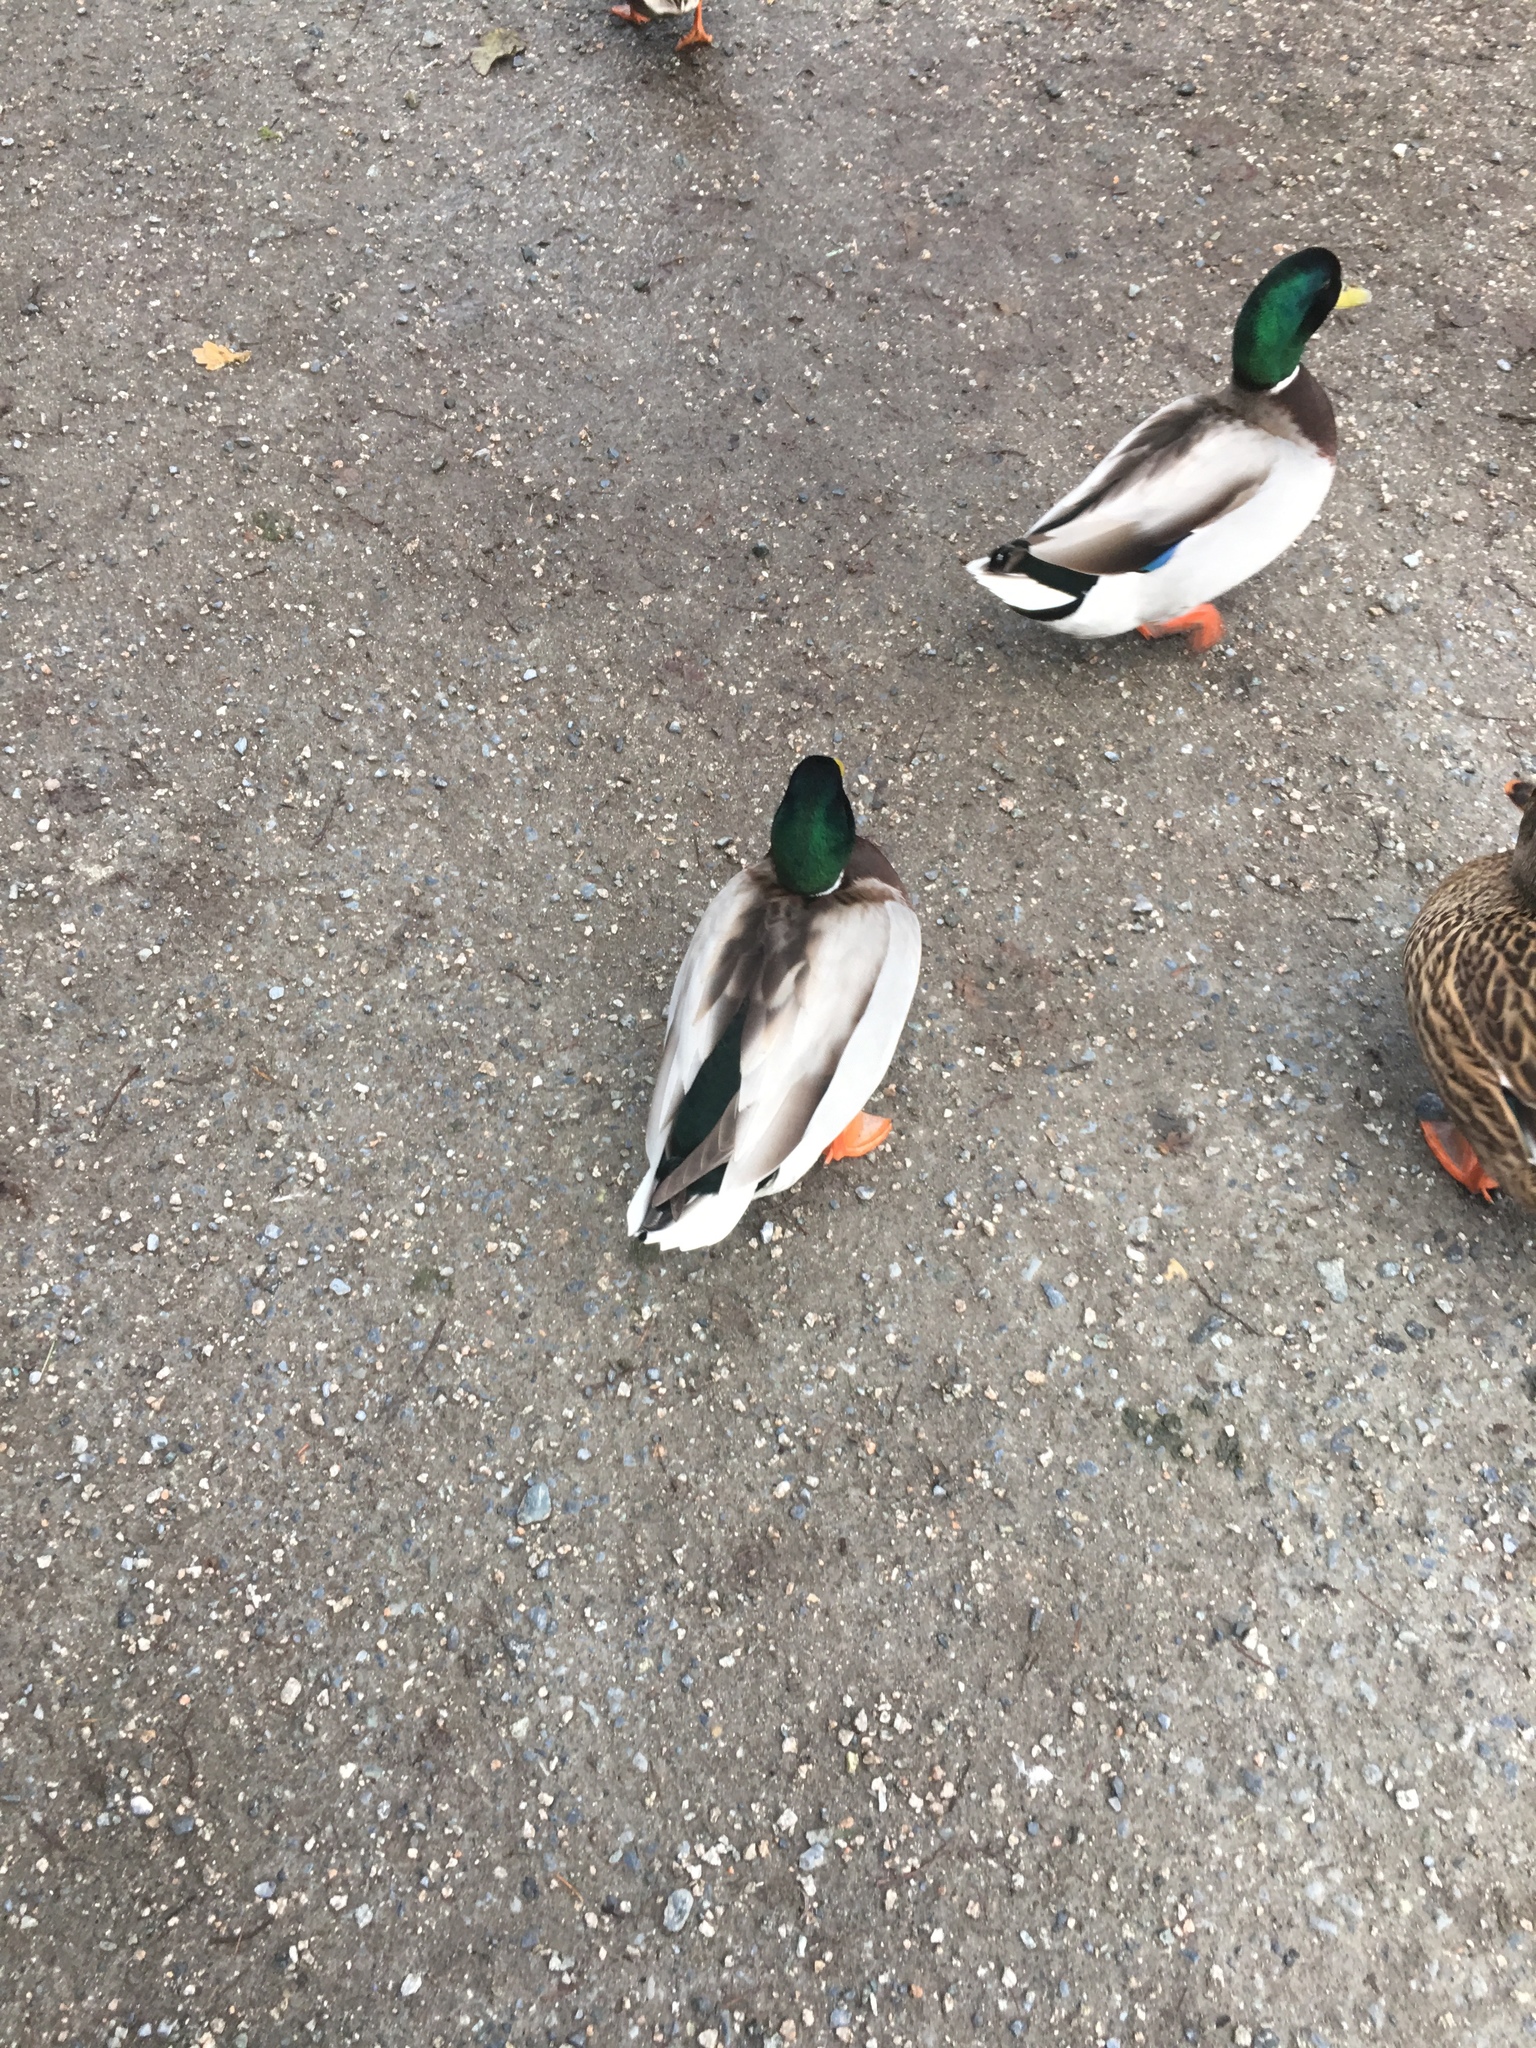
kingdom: Animalia
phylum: Chordata
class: Aves
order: Anseriformes
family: Anatidae
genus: Anas
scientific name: Anas platyrhynchos
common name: Mallard
